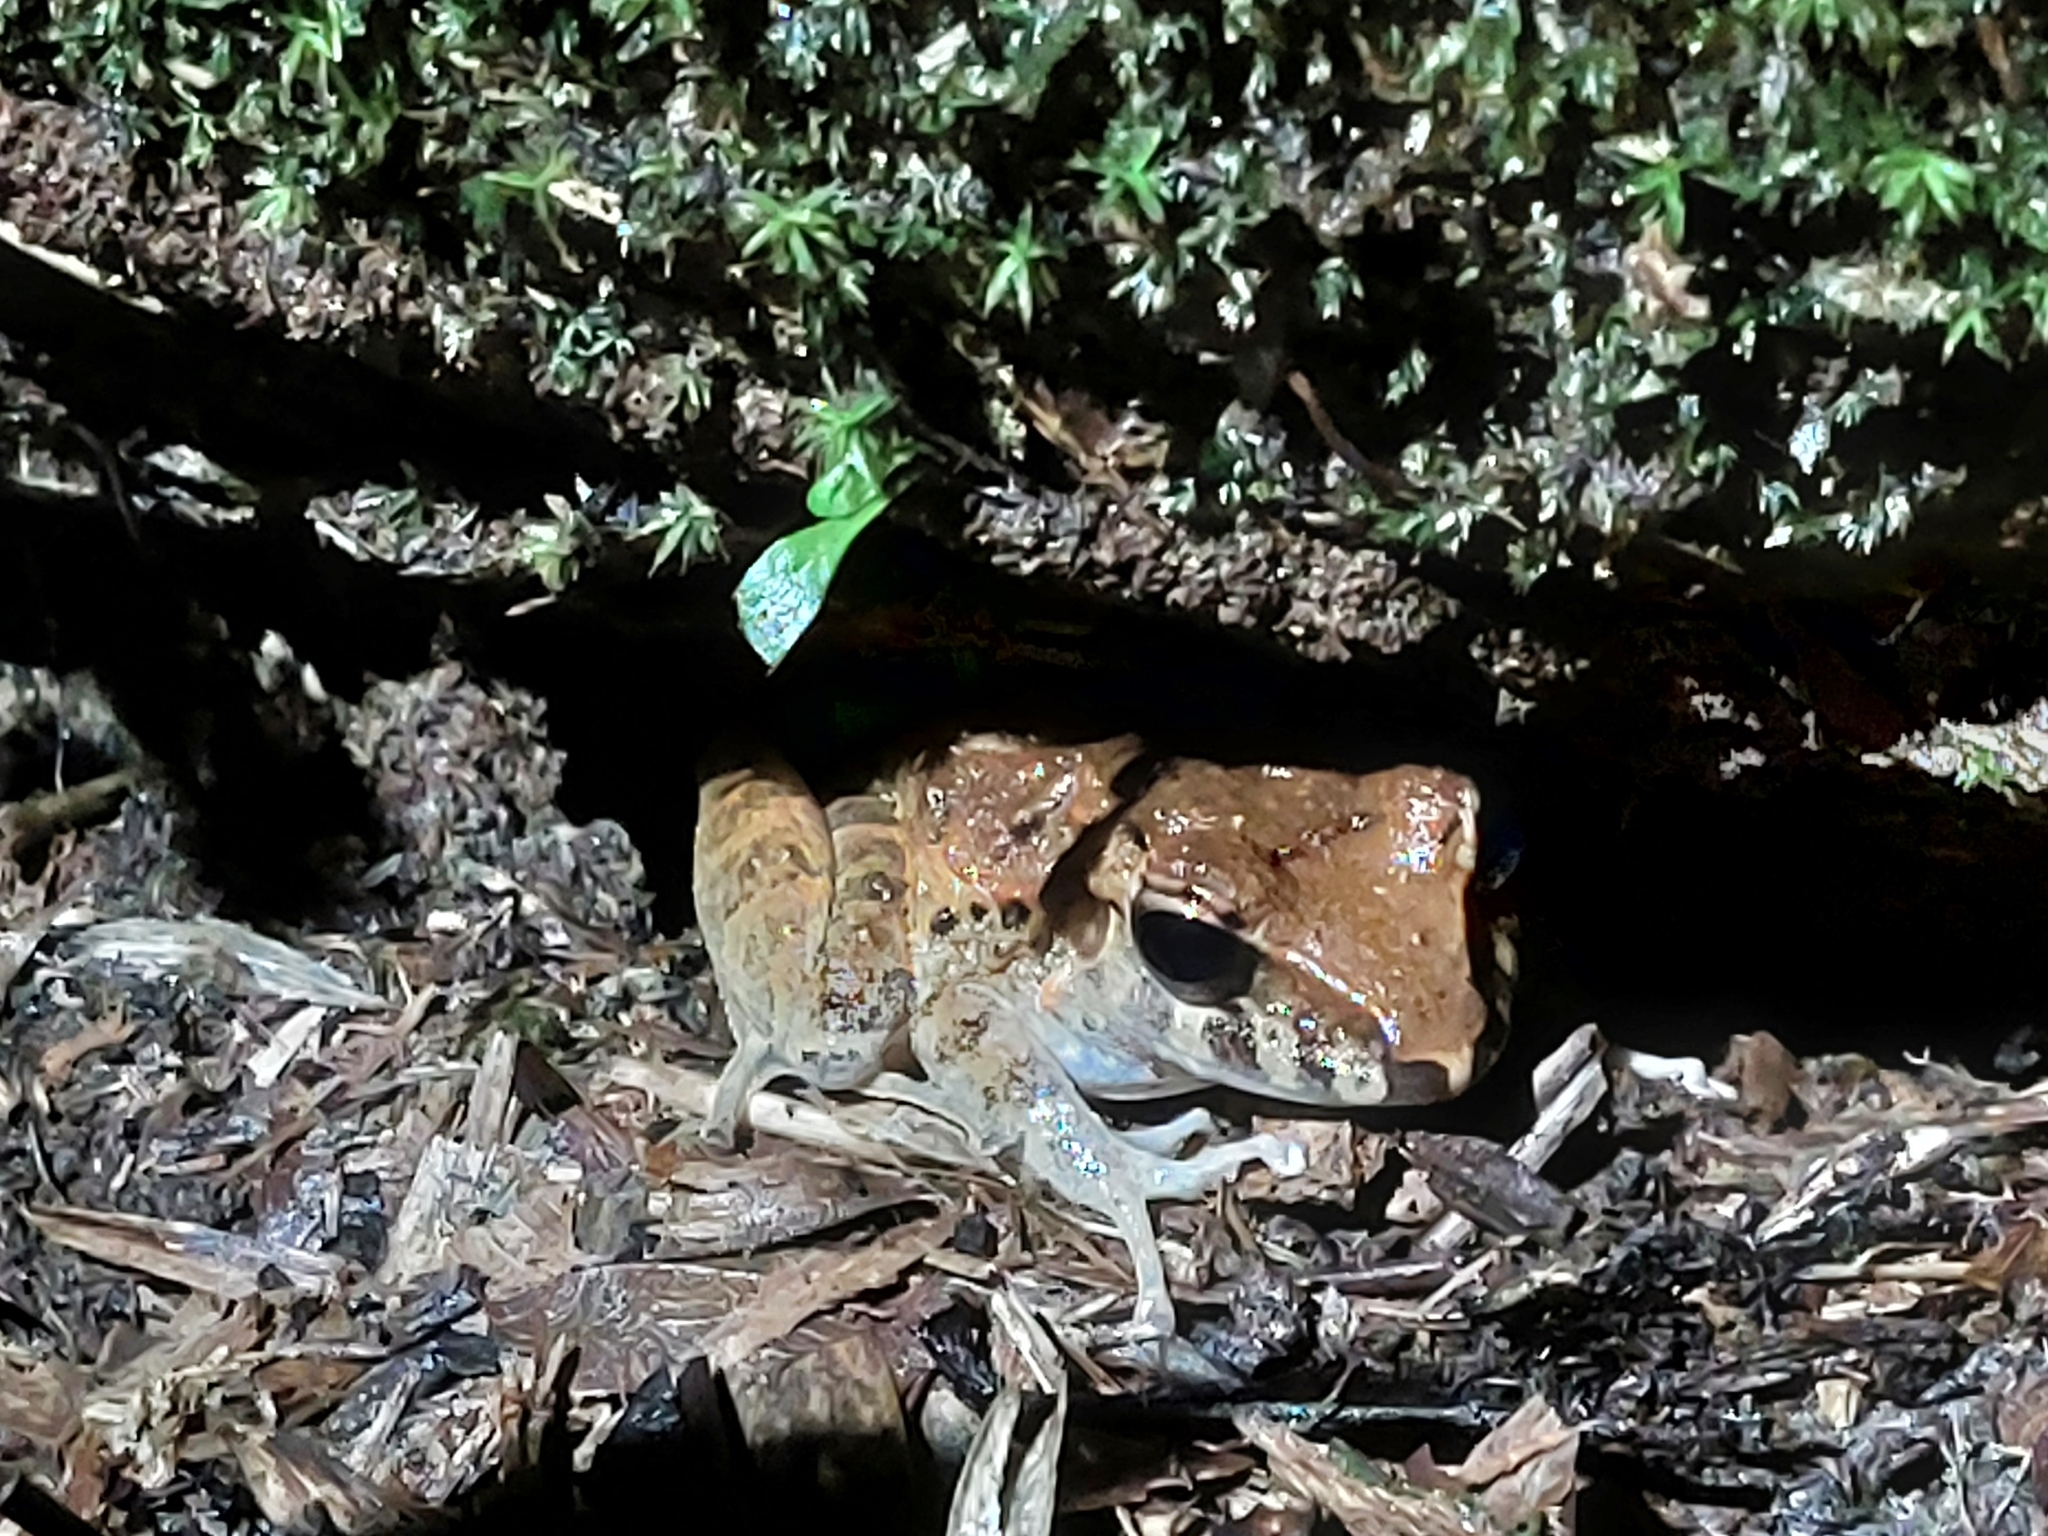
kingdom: Animalia
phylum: Chordata
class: Amphibia
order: Anura
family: Craugastoridae
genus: Craugastor
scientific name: Craugastor fitzingeri
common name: Fitzinger's robber frog
